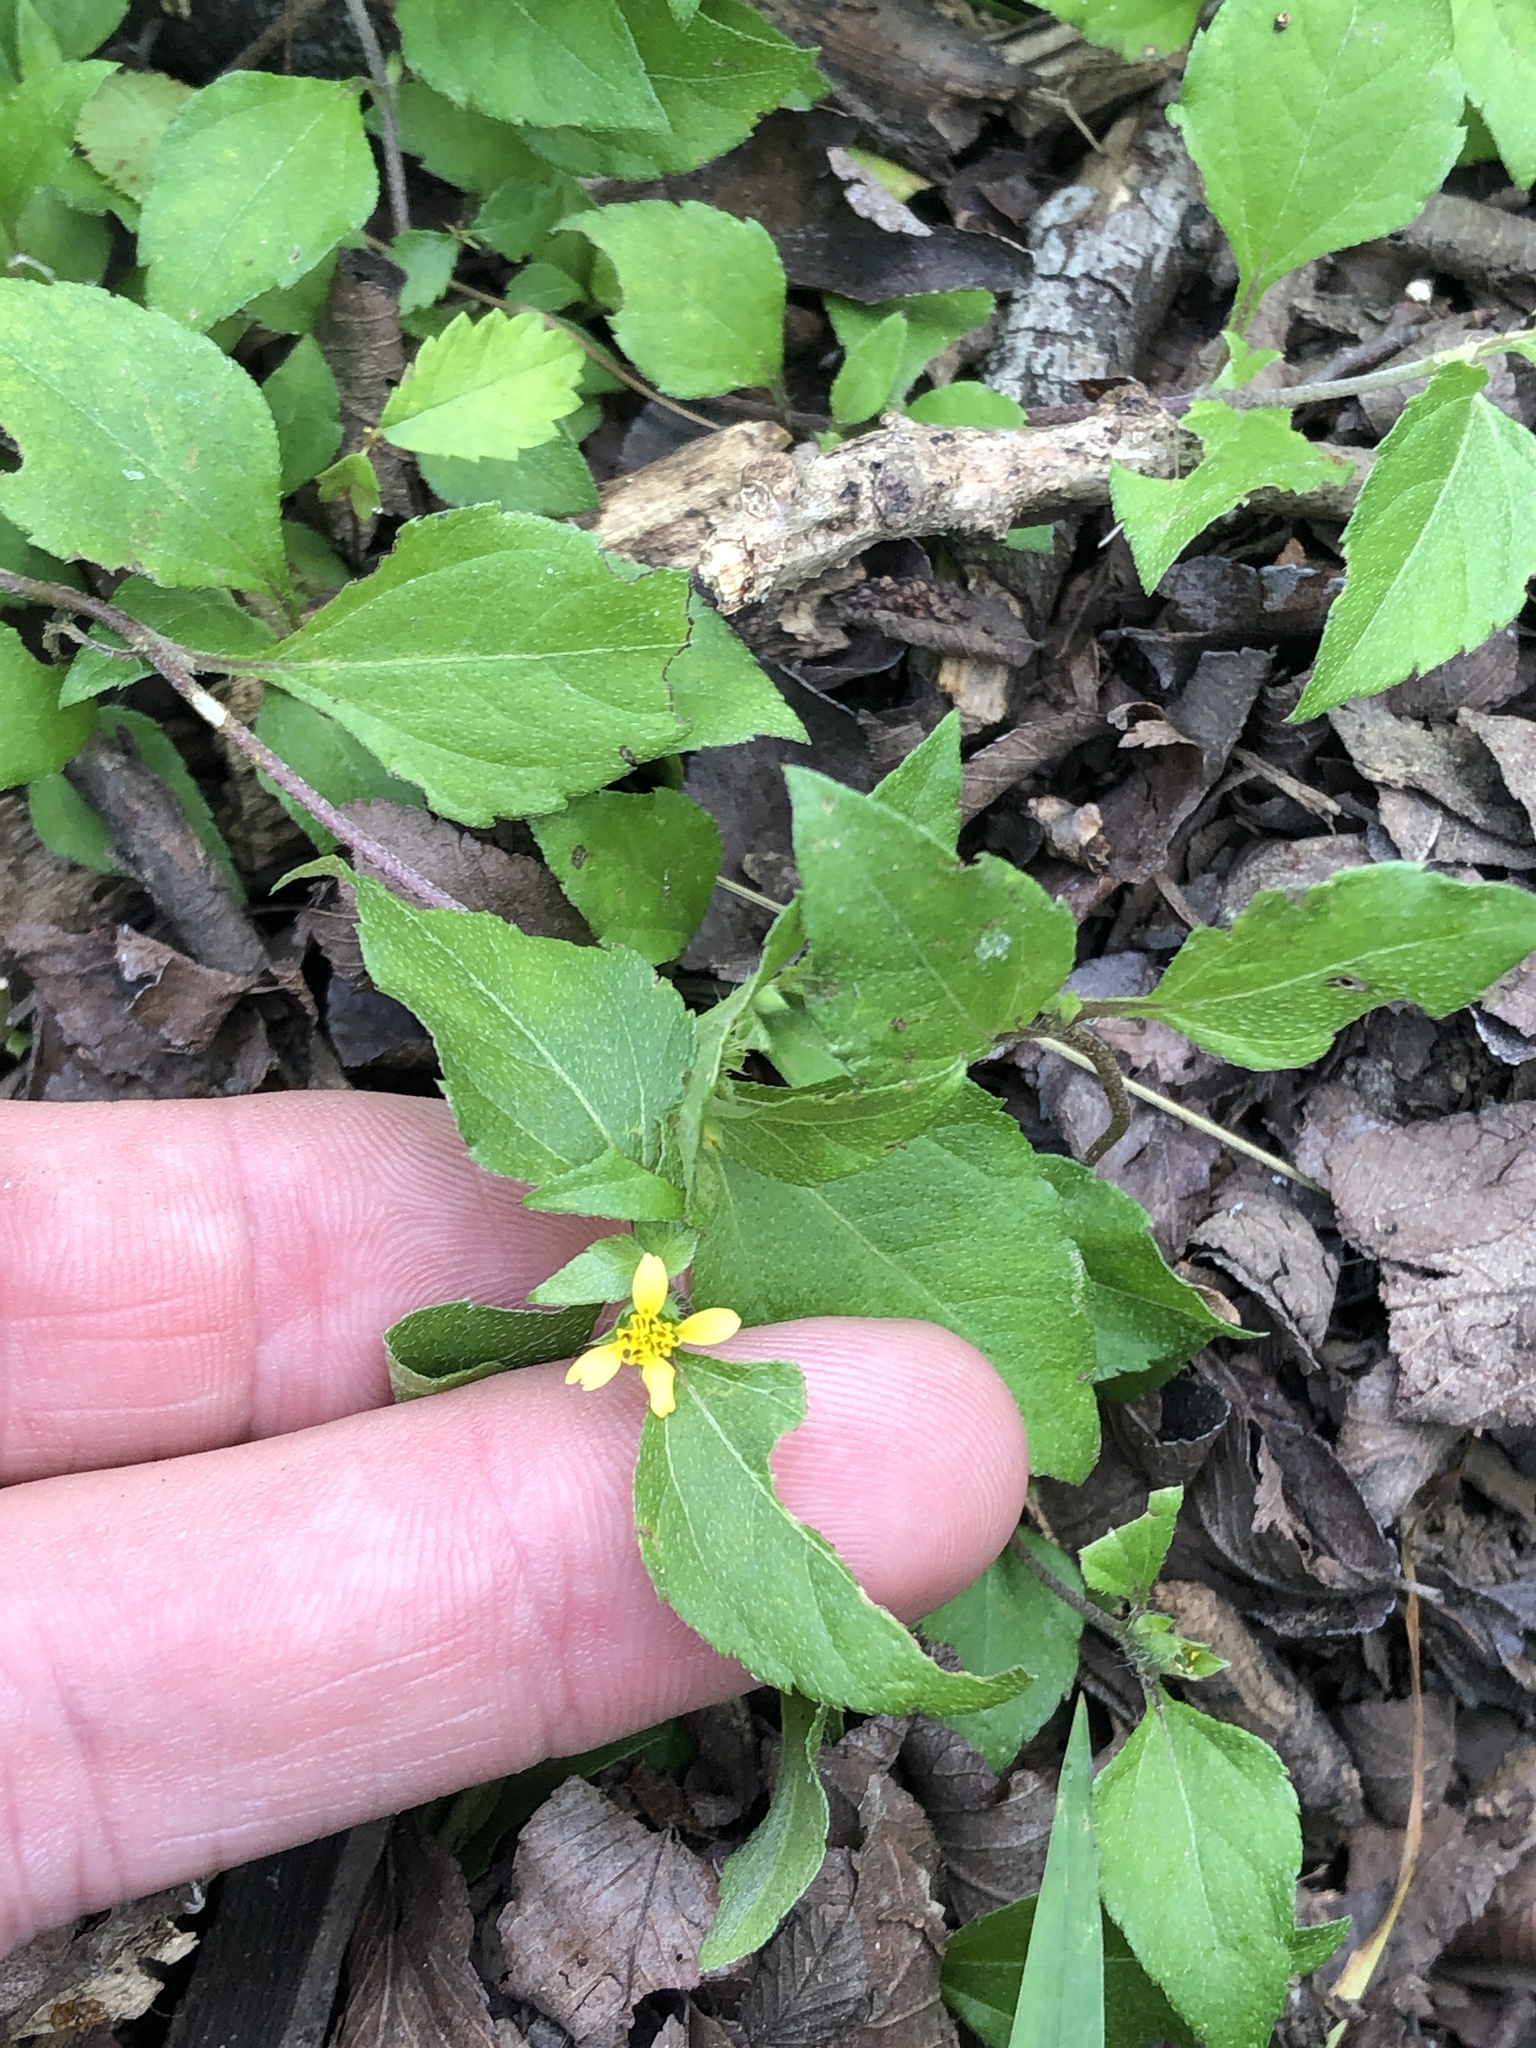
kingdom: Plantae
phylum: Tracheophyta
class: Magnoliopsida
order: Asterales
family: Asteraceae
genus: Calyptocarpus
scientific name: Calyptocarpus vialis
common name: Straggler daisy
